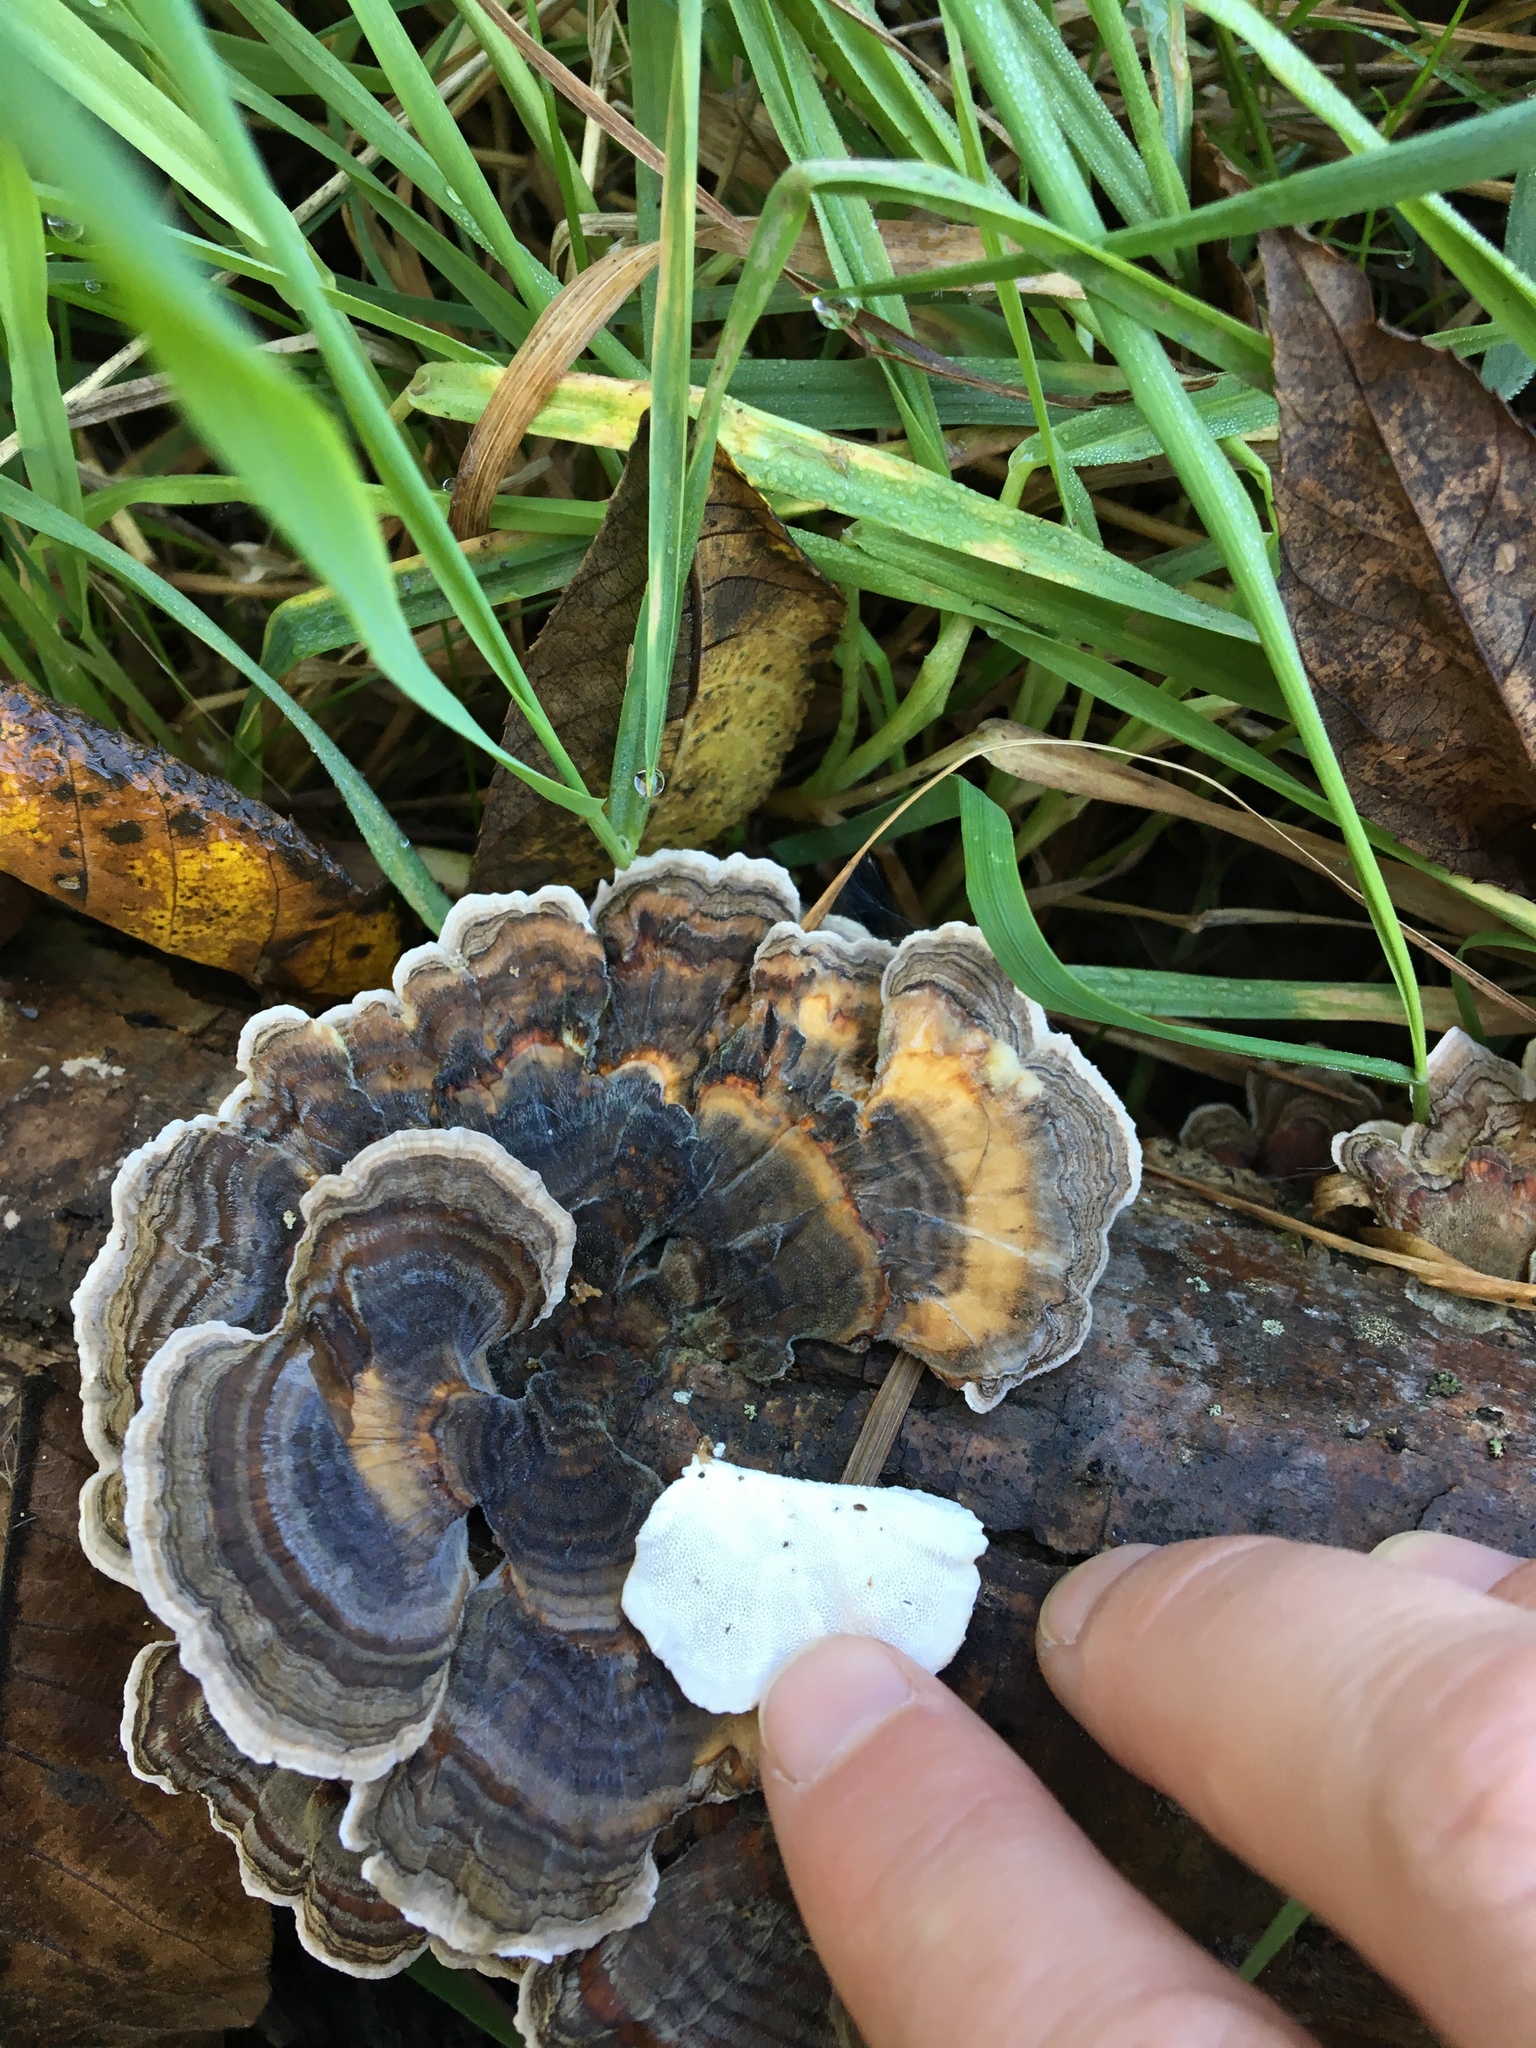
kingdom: Fungi
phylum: Basidiomycota
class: Agaricomycetes
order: Polyporales
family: Polyporaceae
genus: Trametes
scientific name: Trametes versicolor
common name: Turkeytail
